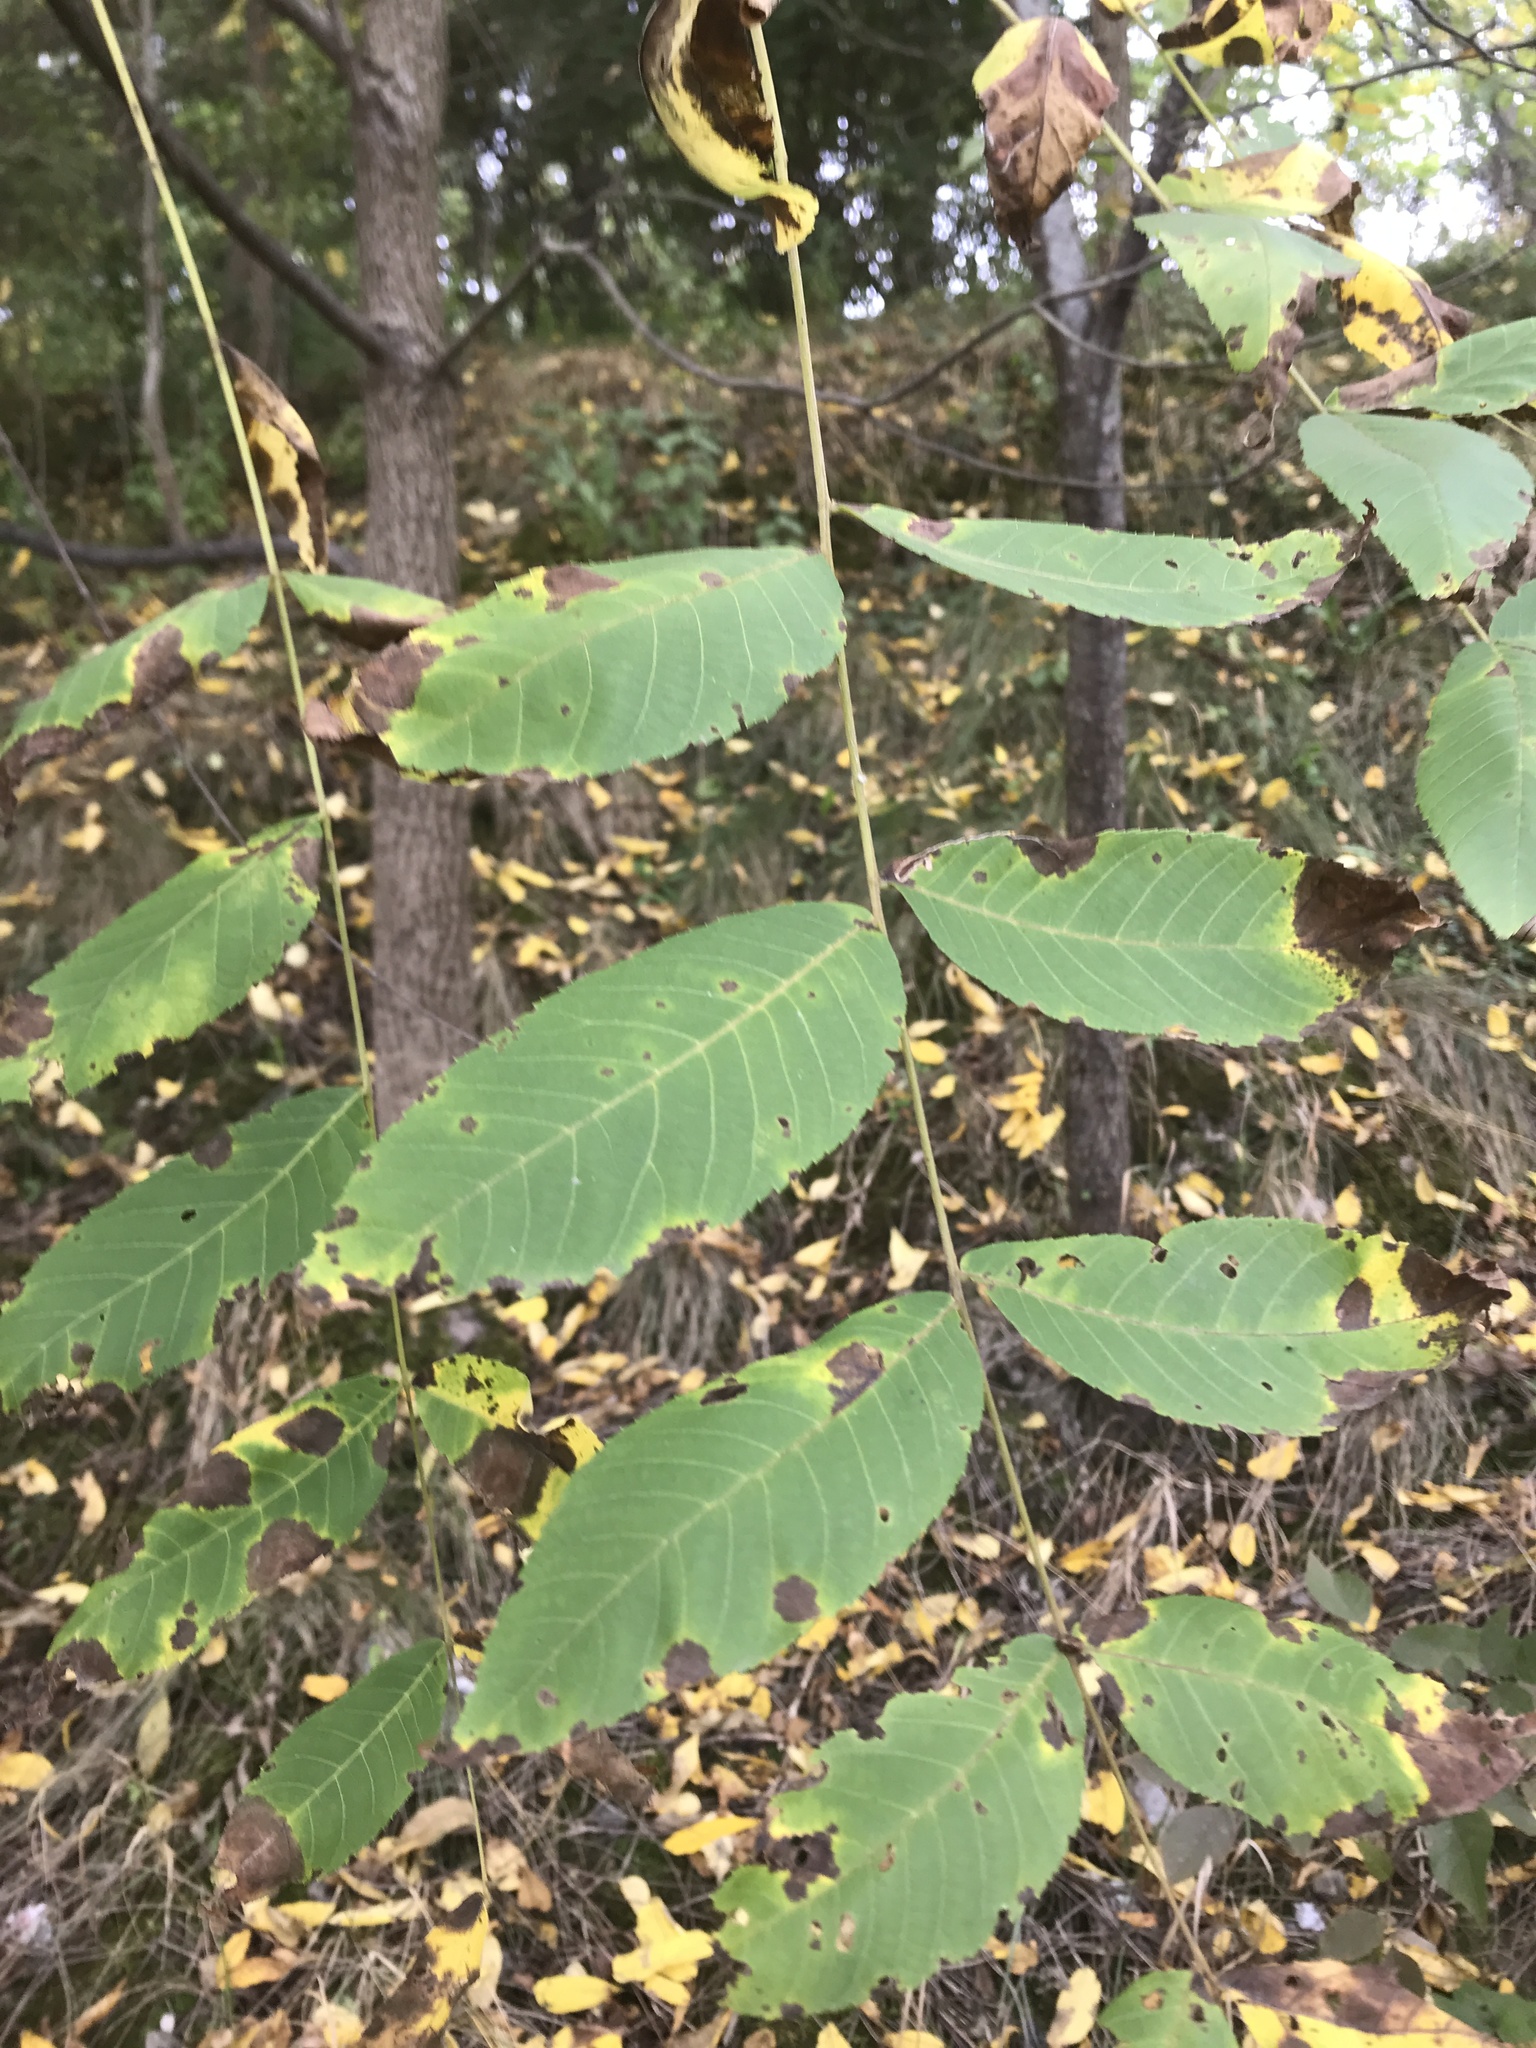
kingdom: Plantae
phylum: Tracheophyta
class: Magnoliopsida
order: Fagales
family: Juglandaceae
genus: Juglans
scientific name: Juglans nigra
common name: Black walnut
